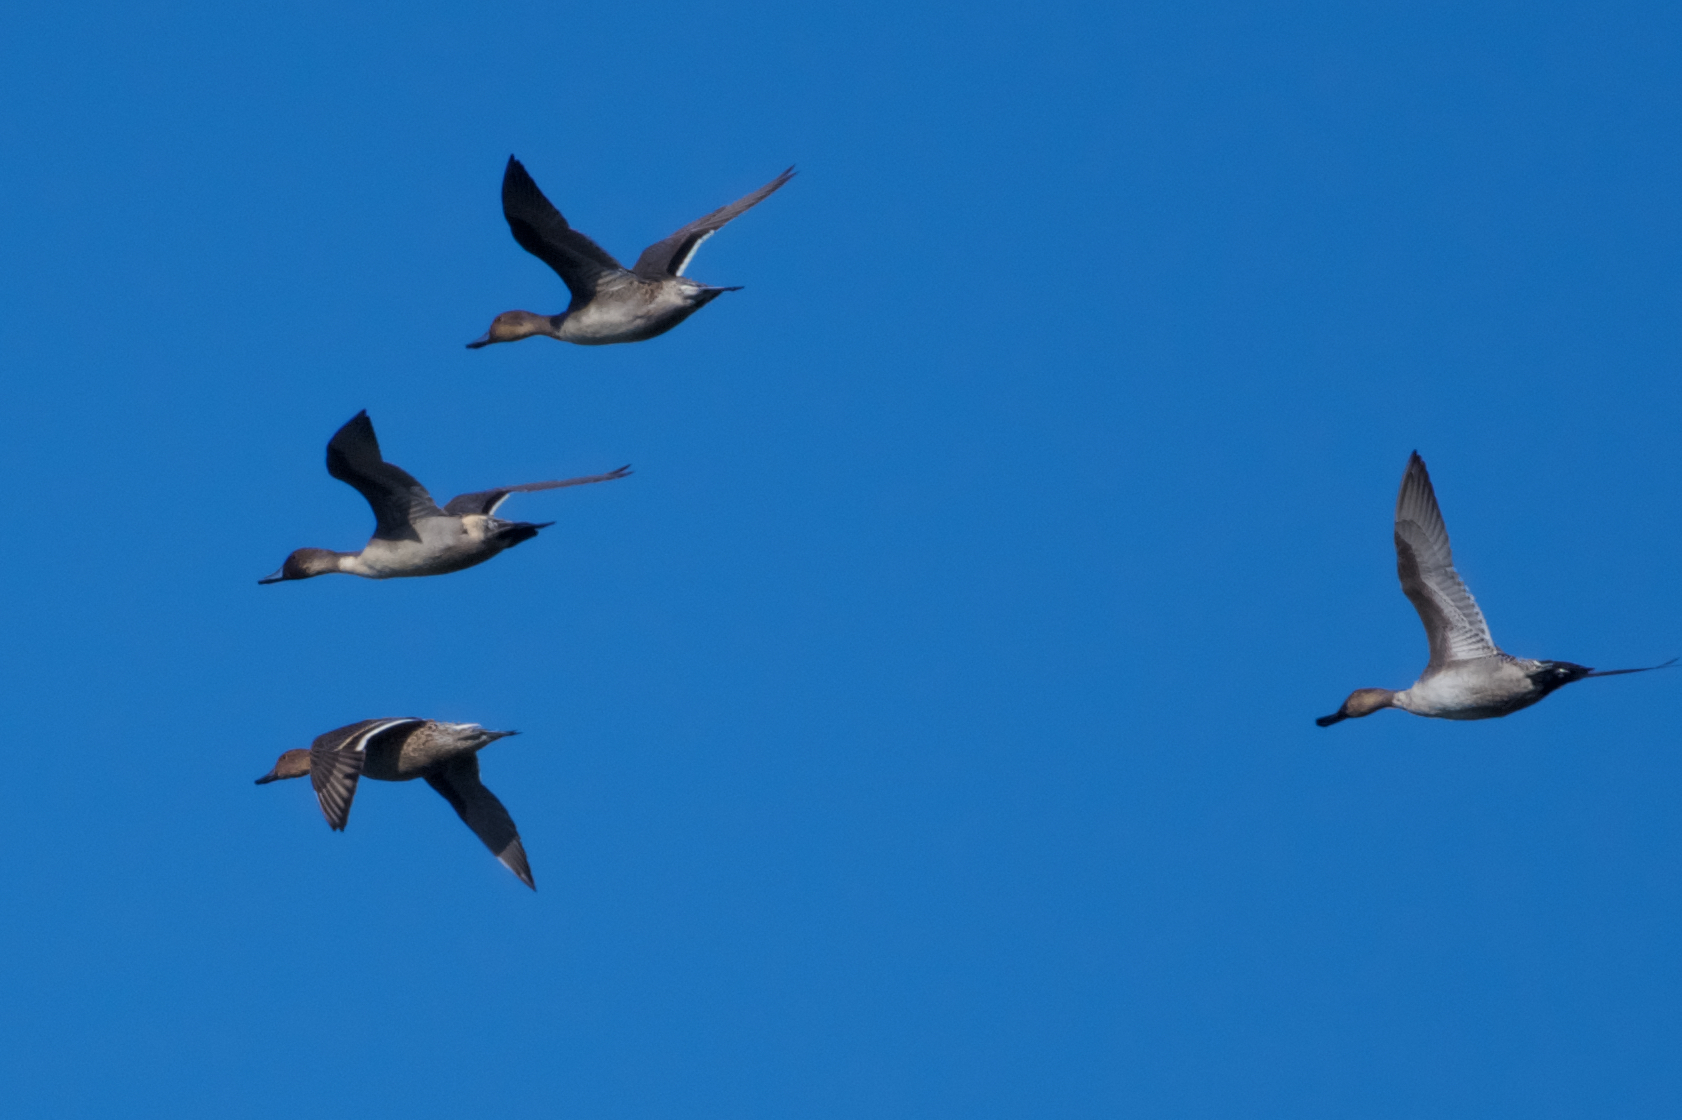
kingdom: Animalia
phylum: Chordata
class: Aves
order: Anseriformes
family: Anatidae
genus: Anas
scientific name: Anas acuta
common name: Northern pintail
